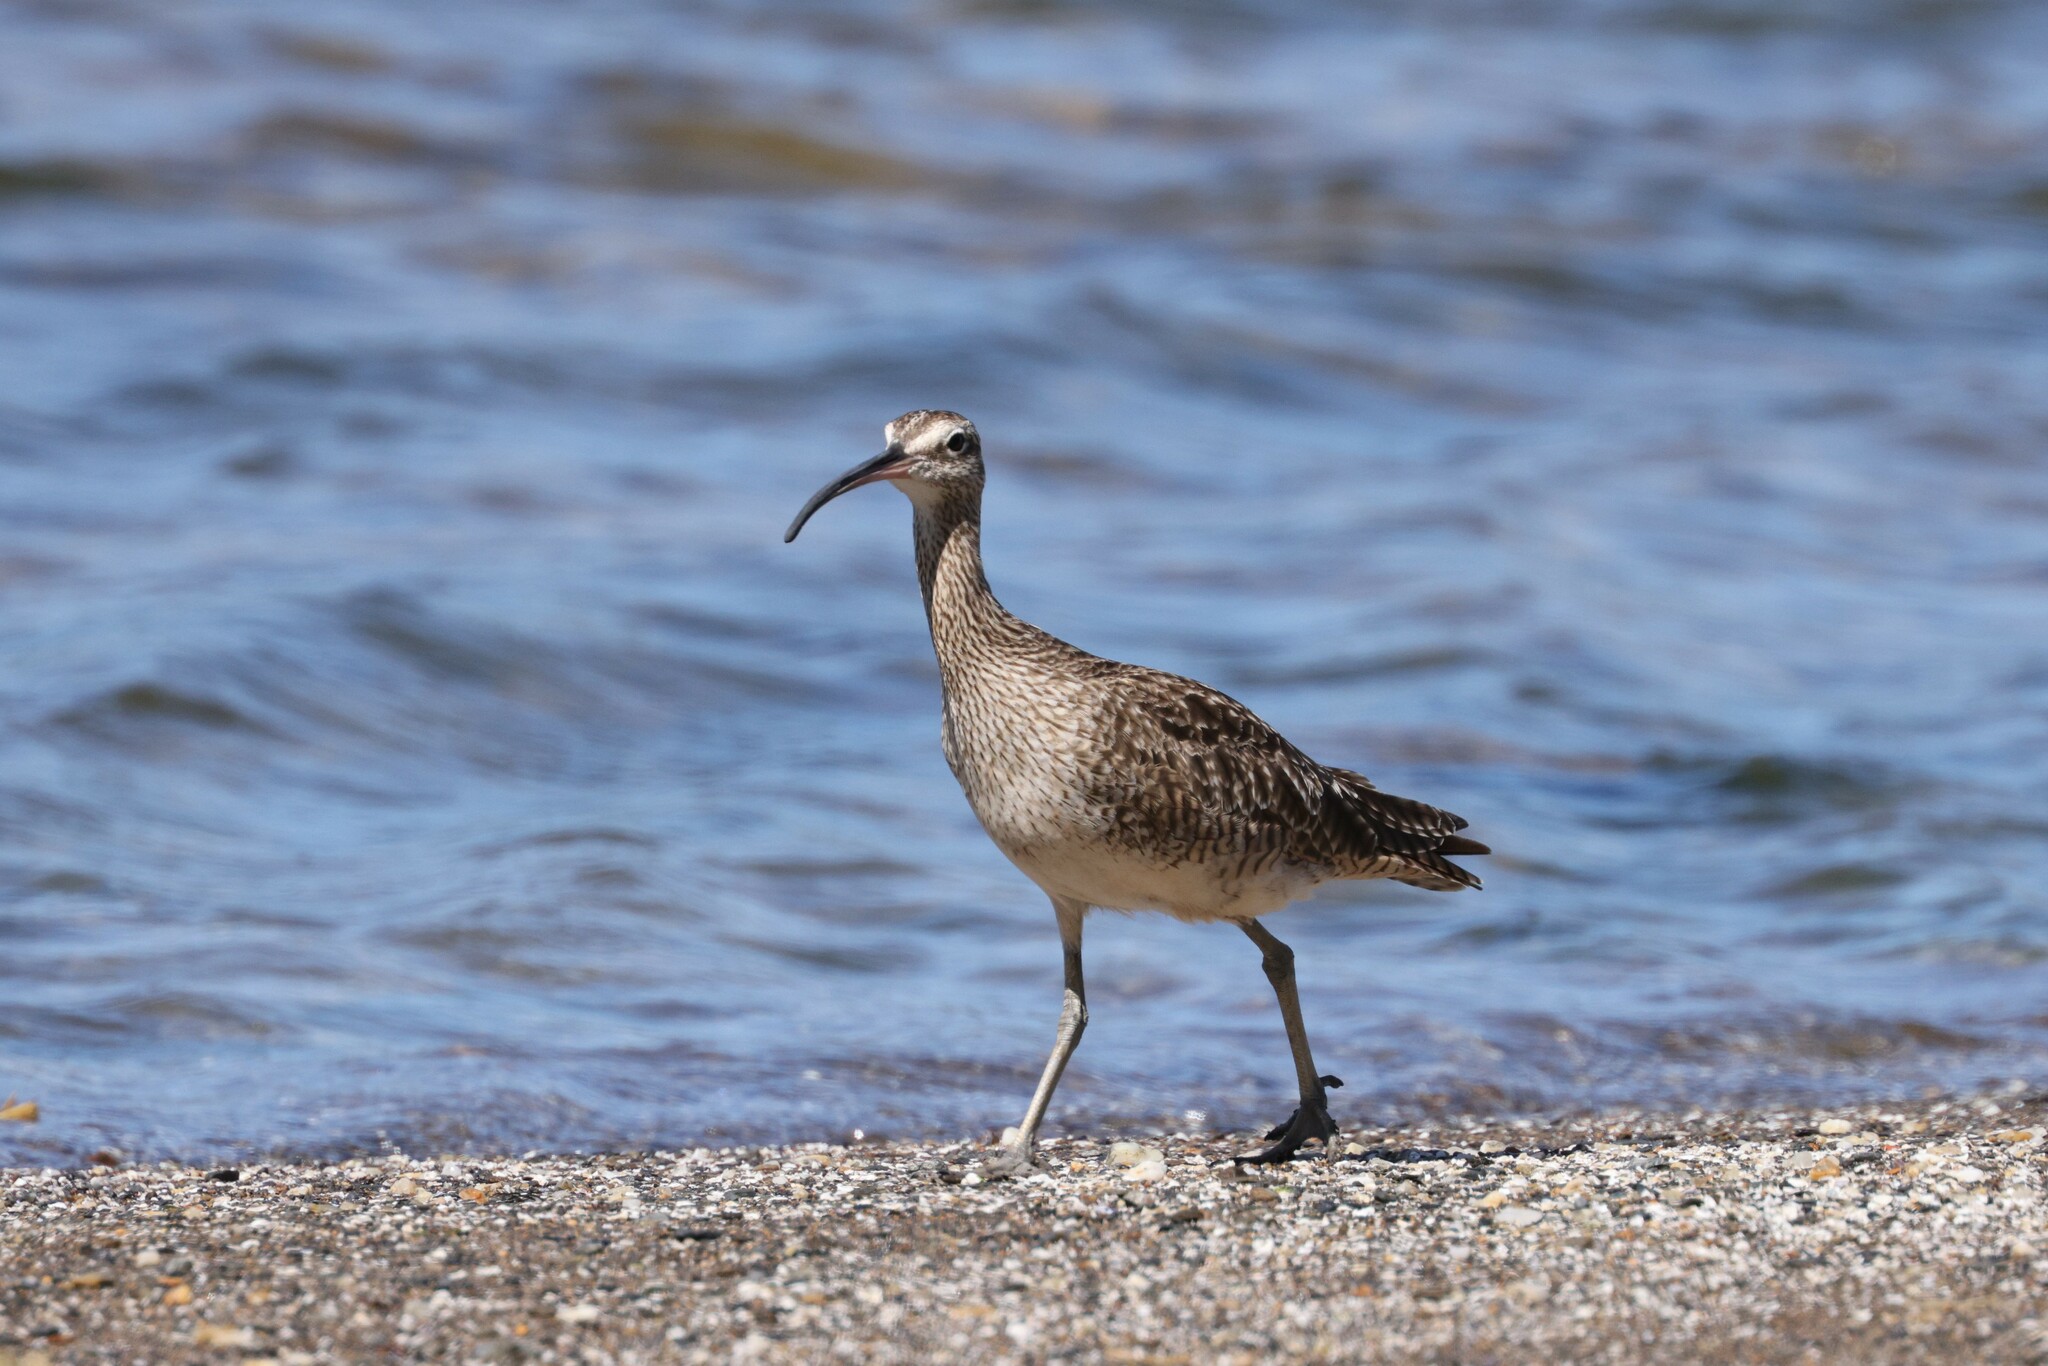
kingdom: Animalia
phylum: Chordata
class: Aves
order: Charadriiformes
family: Scolopacidae
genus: Numenius
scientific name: Numenius phaeopus
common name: Whimbrel
